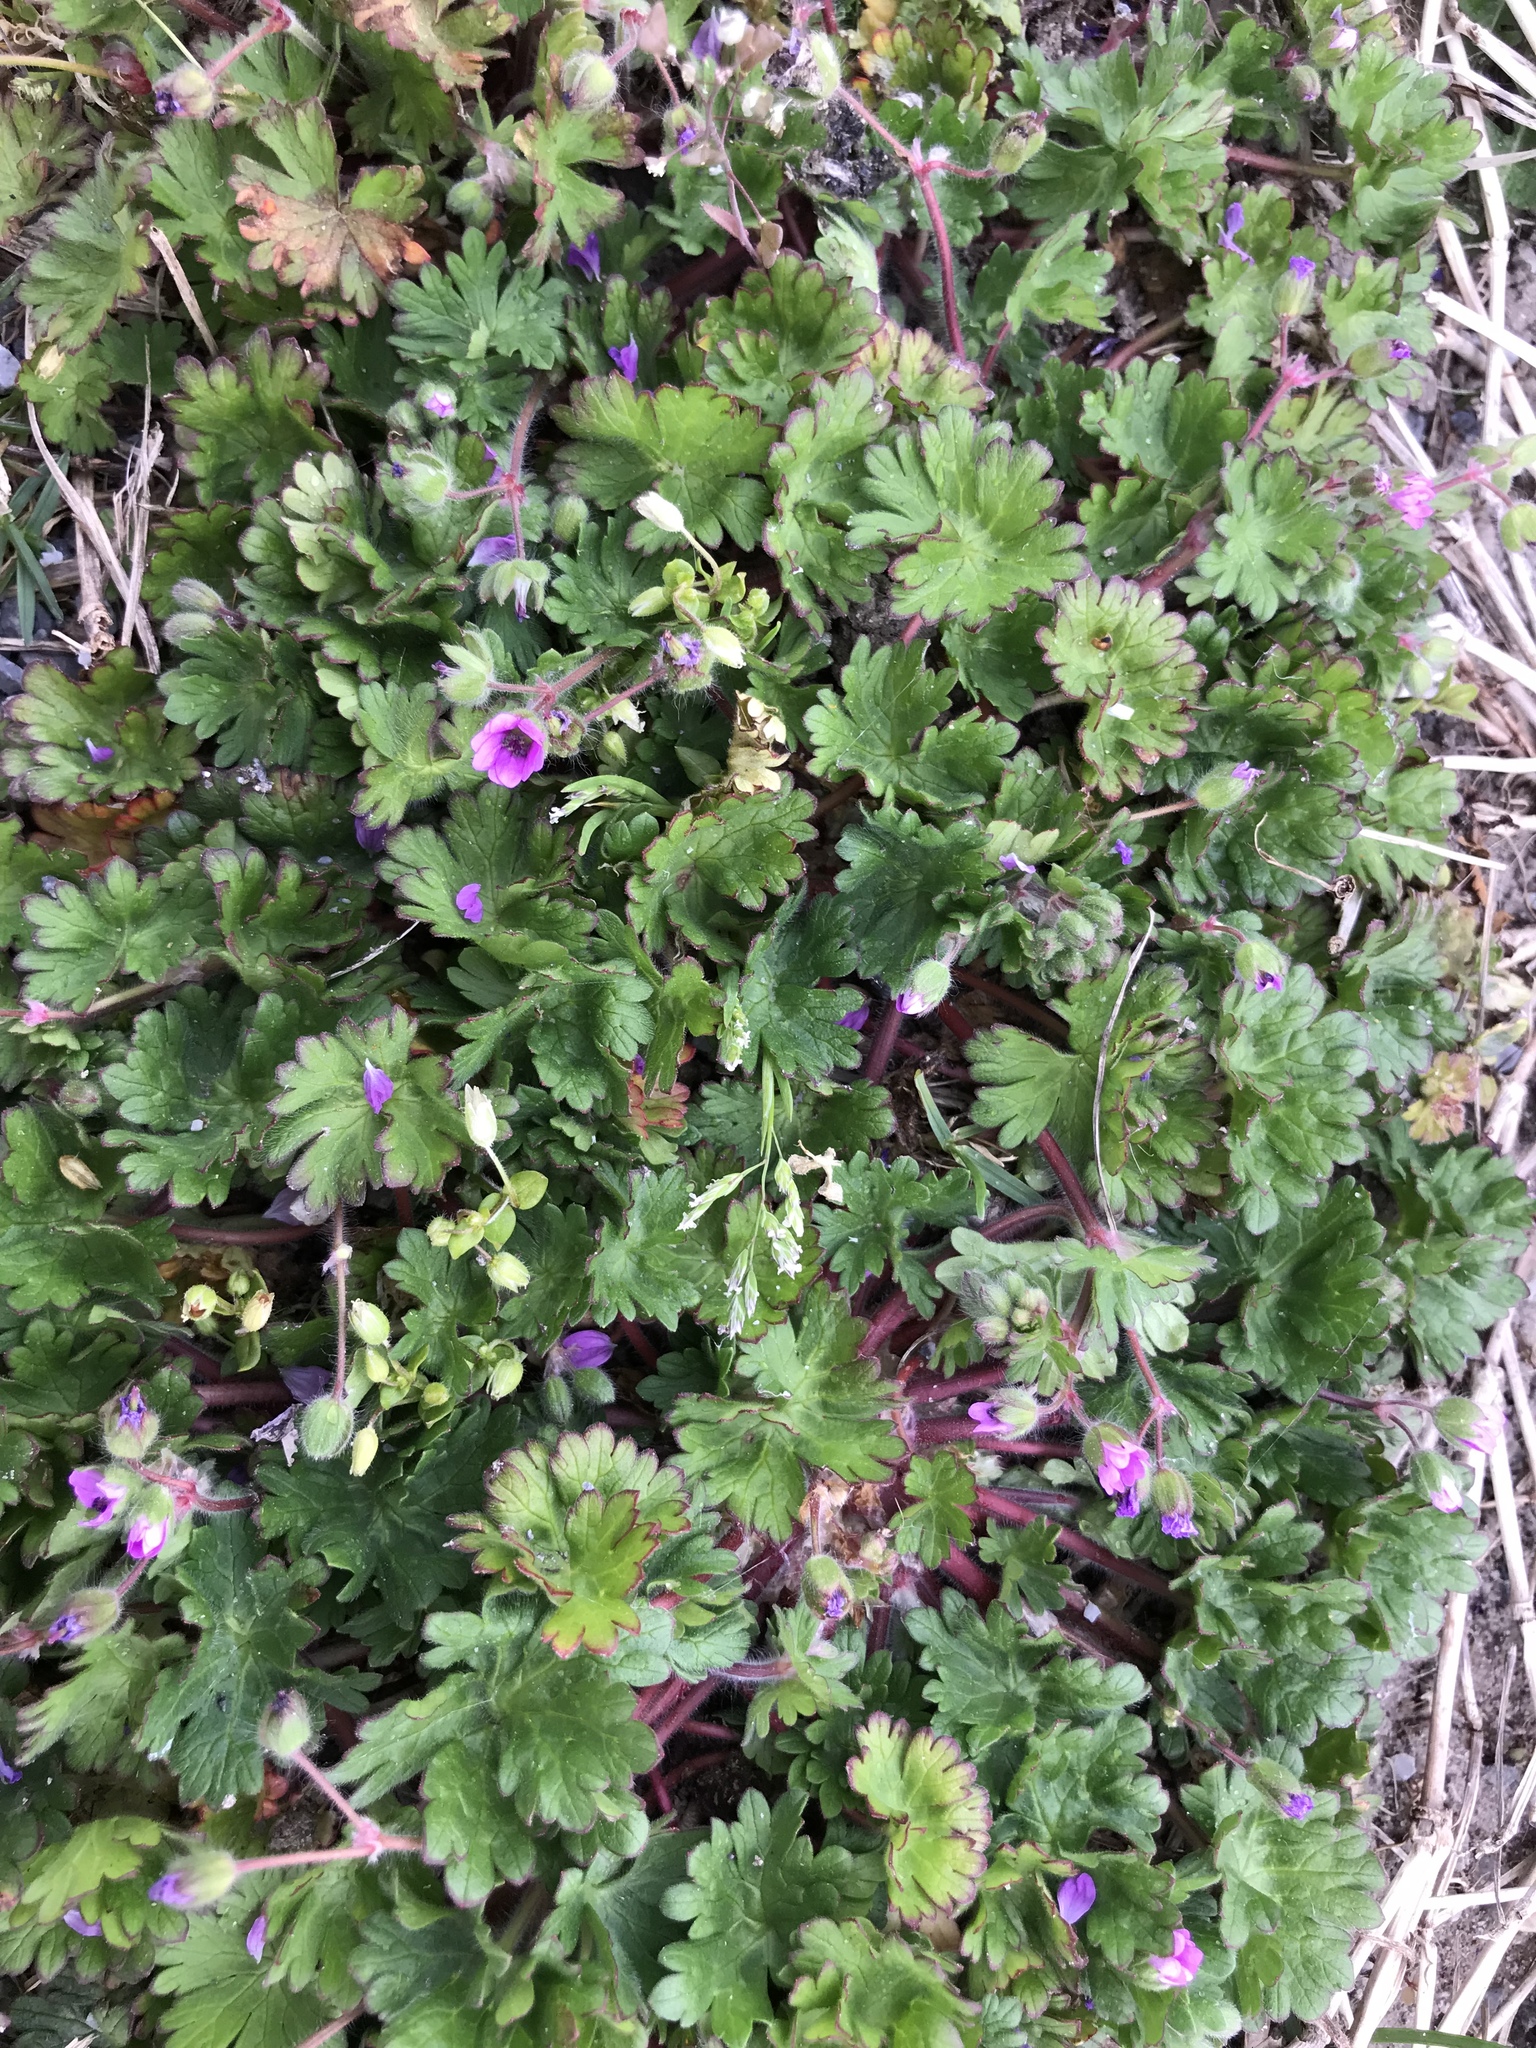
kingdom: Plantae
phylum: Tracheophyta
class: Magnoliopsida
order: Geraniales
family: Geraniaceae
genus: Geranium
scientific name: Geranium molle
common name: Dove's-foot crane's-bill
